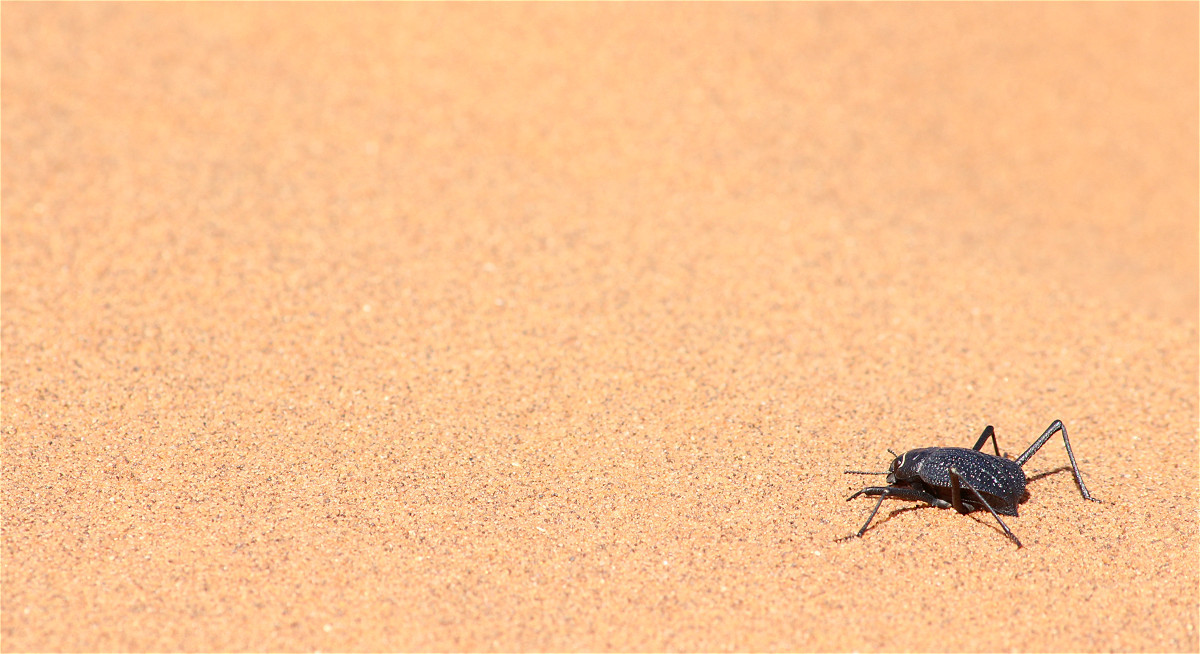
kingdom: Animalia
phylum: Arthropoda
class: Insecta
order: Coleoptera
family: Tenebrionidae
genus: Onymacris
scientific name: Onymacris
